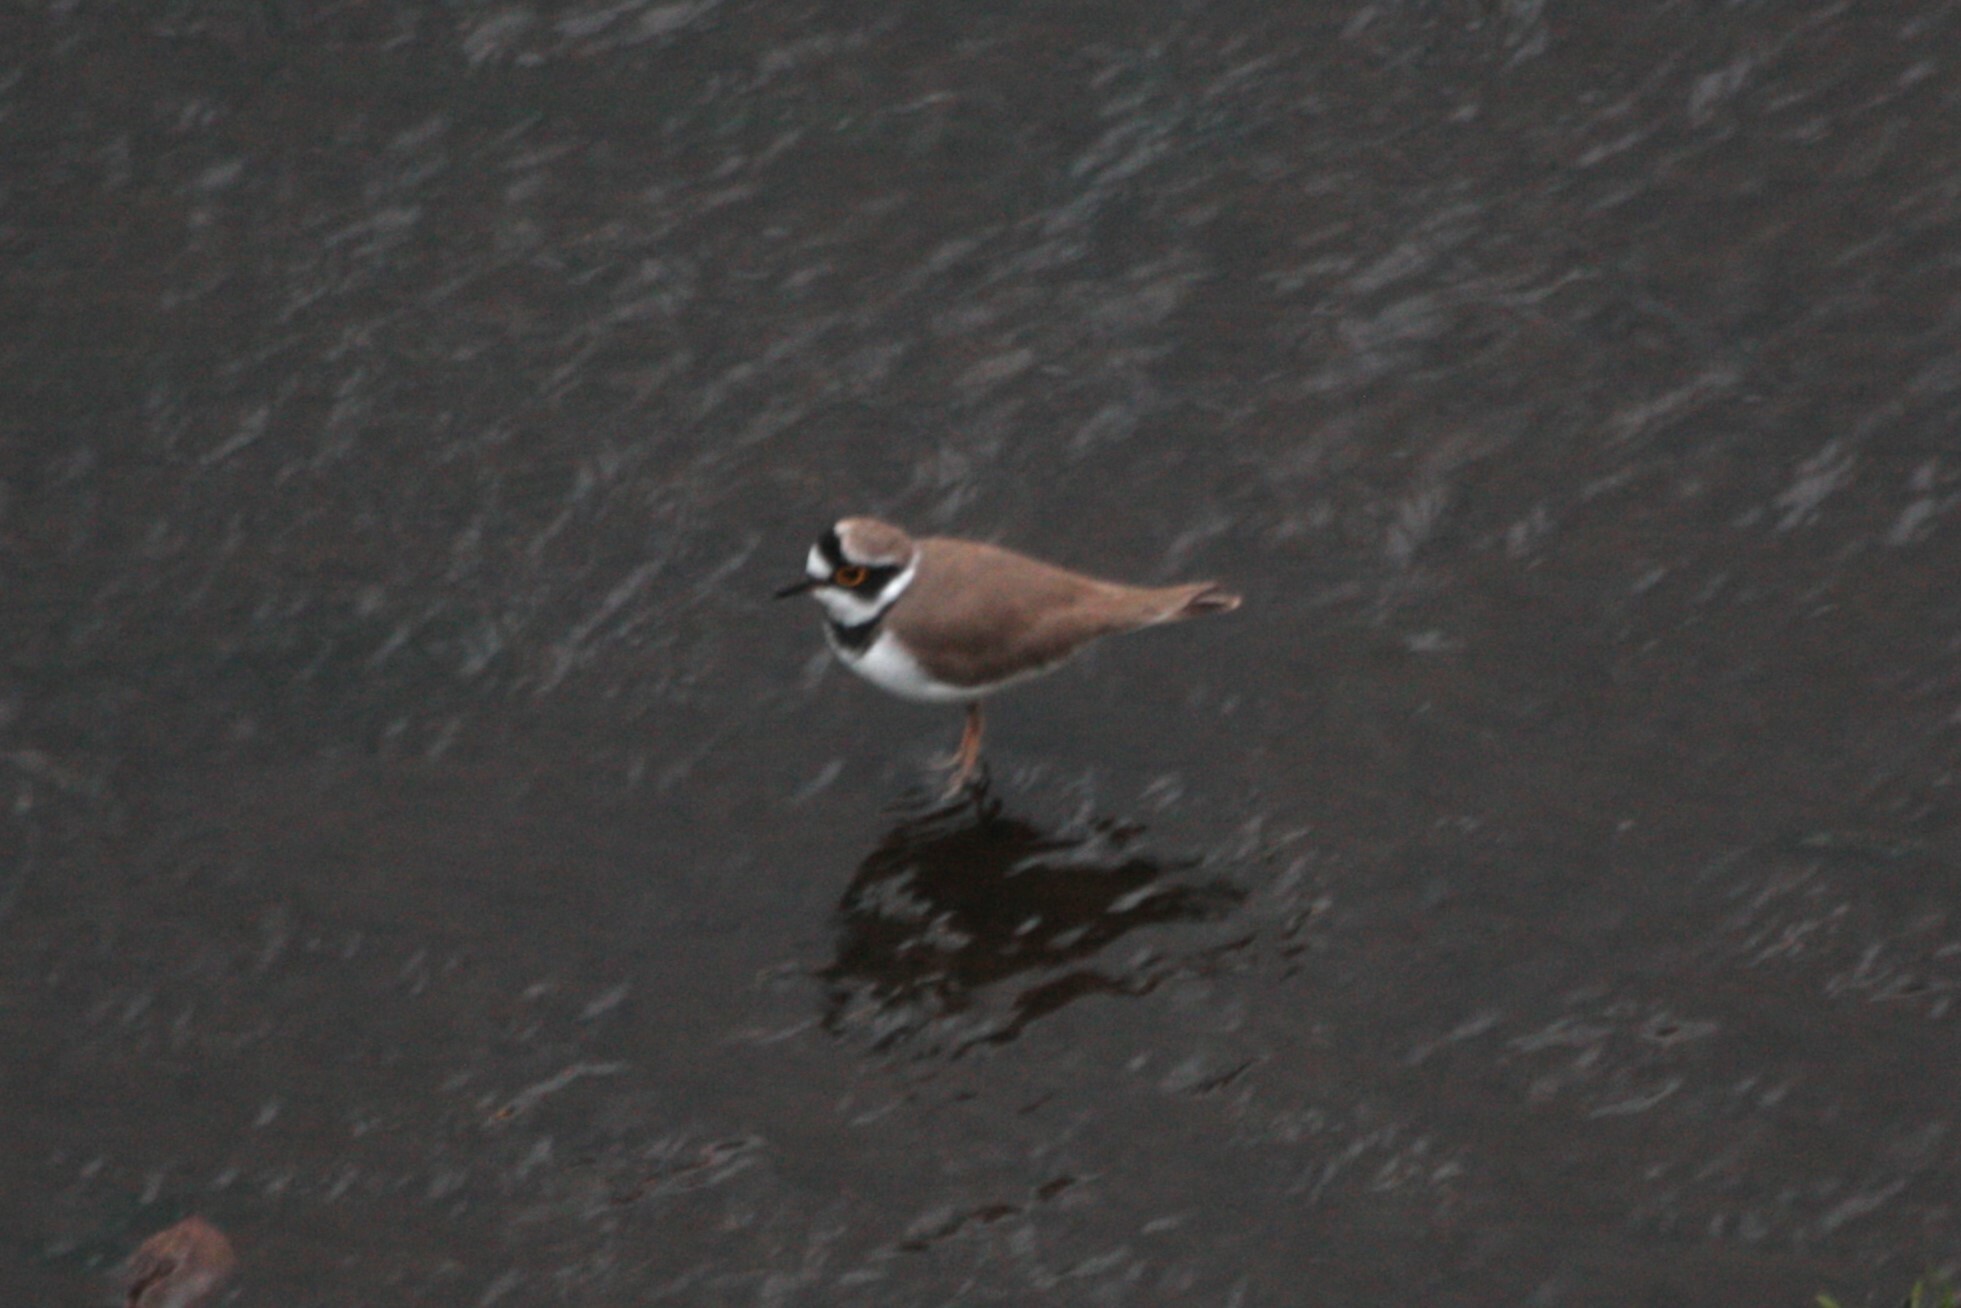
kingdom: Animalia
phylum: Chordata
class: Aves
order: Charadriiformes
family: Charadriidae
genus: Charadrius
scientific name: Charadrius dubius
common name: Little ringed plover
